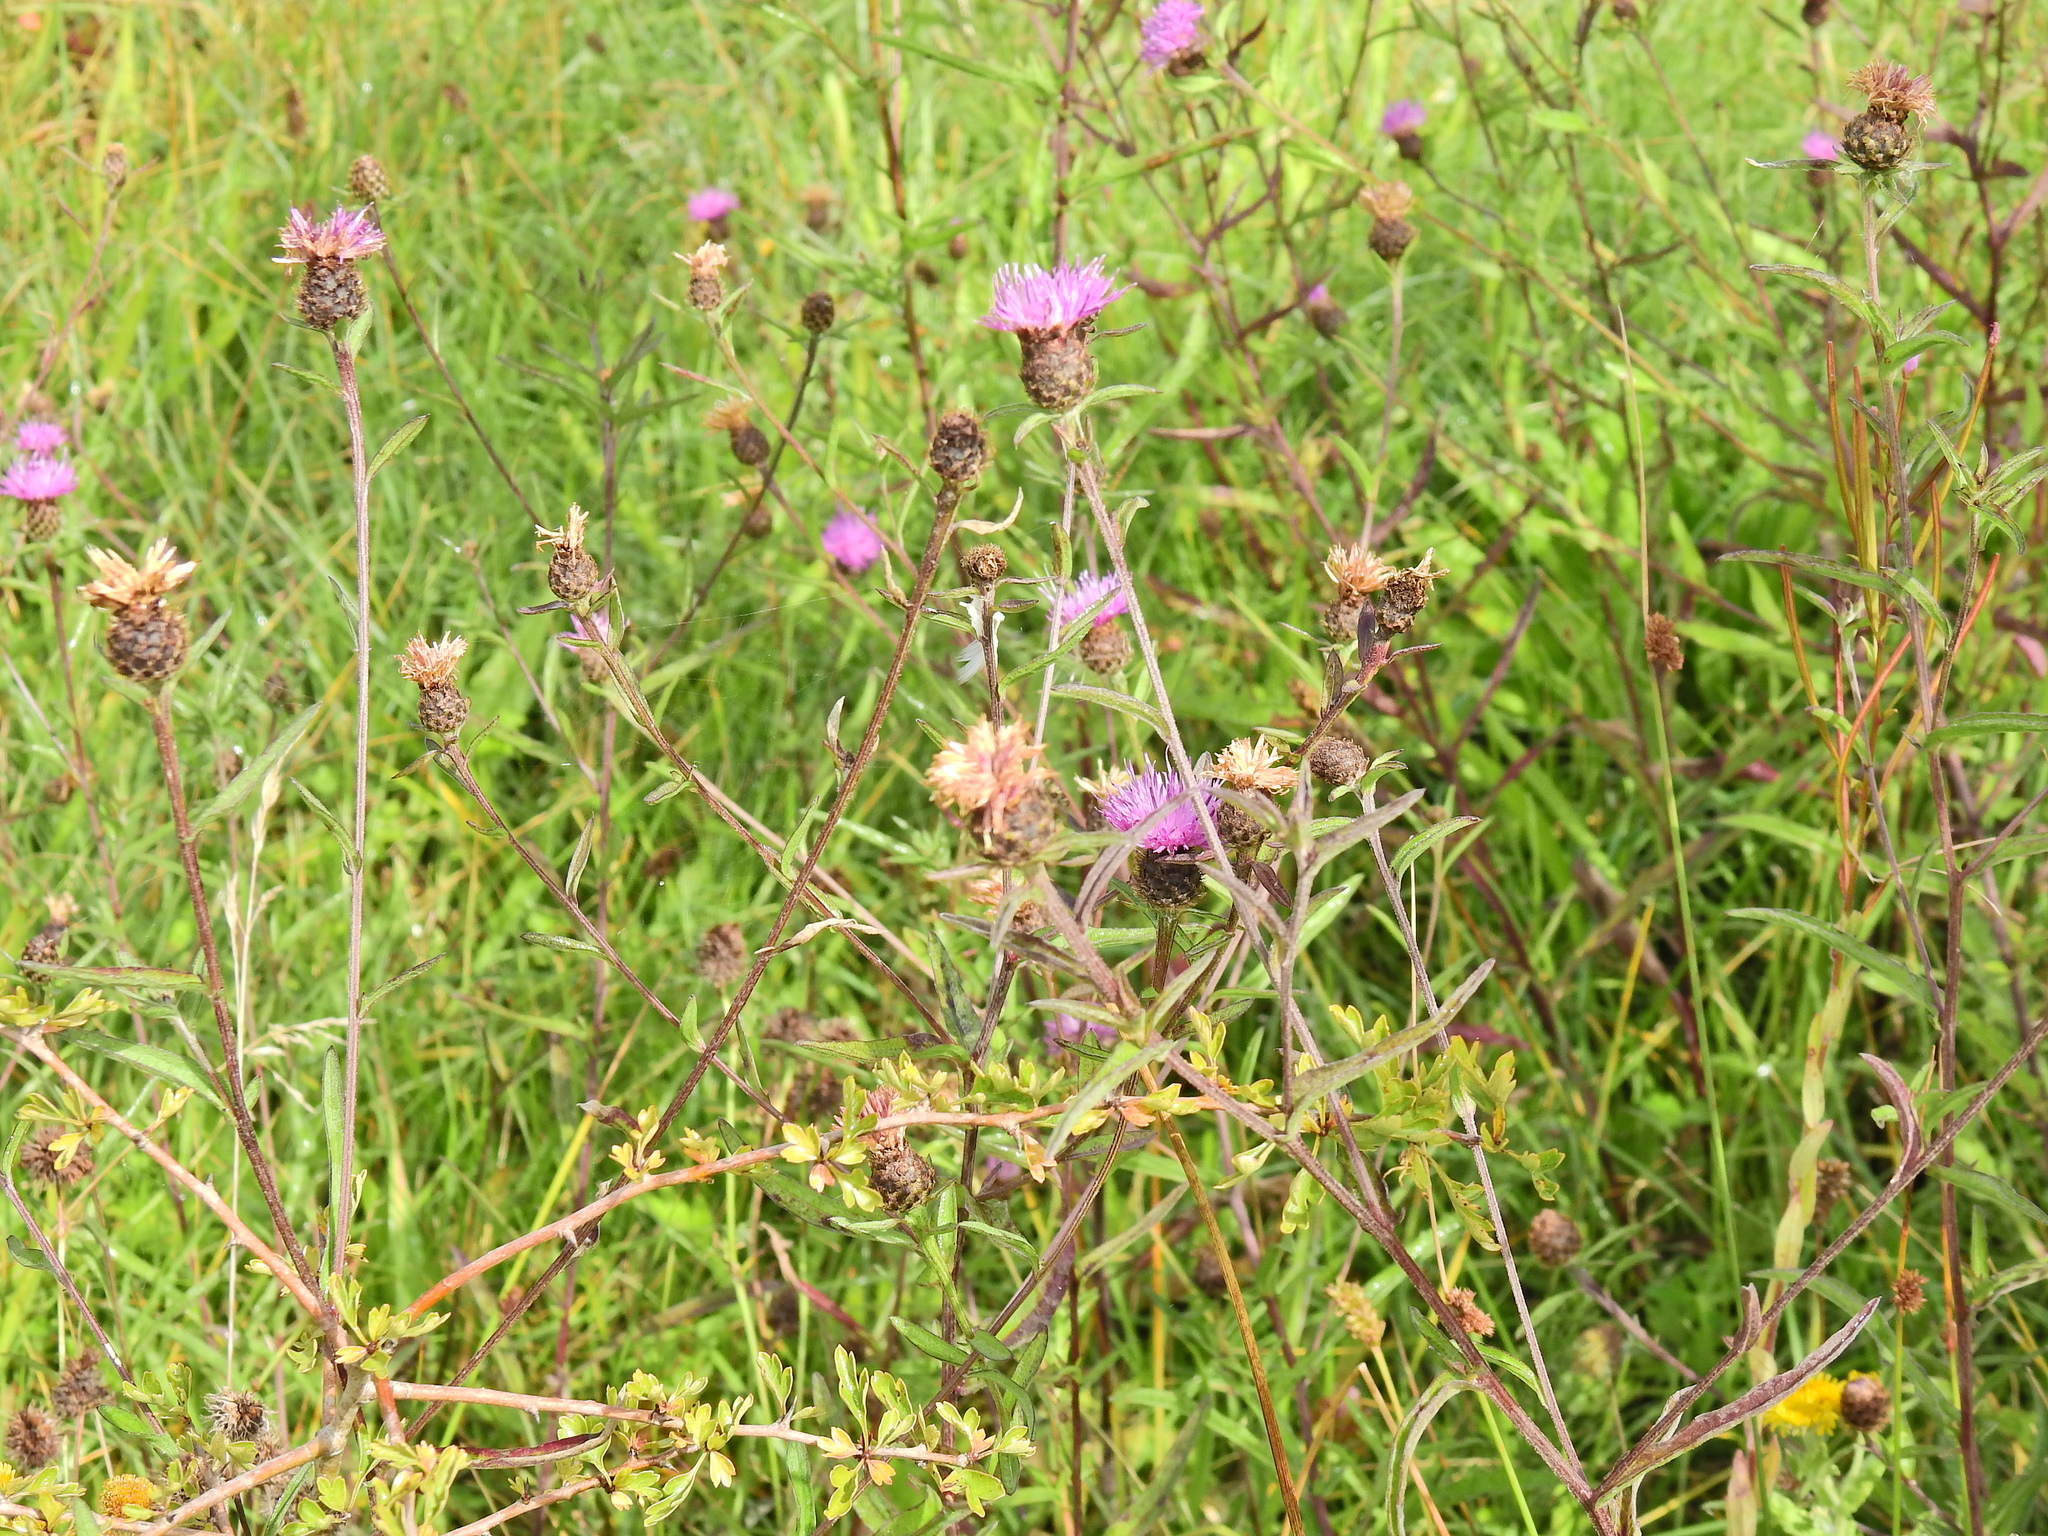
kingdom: Plantae
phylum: Tracheophyta
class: Magnoliopsida
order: Asterales
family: Asteraceae
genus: Centaurea
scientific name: Centaurea nigra
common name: Lesser knapweed
